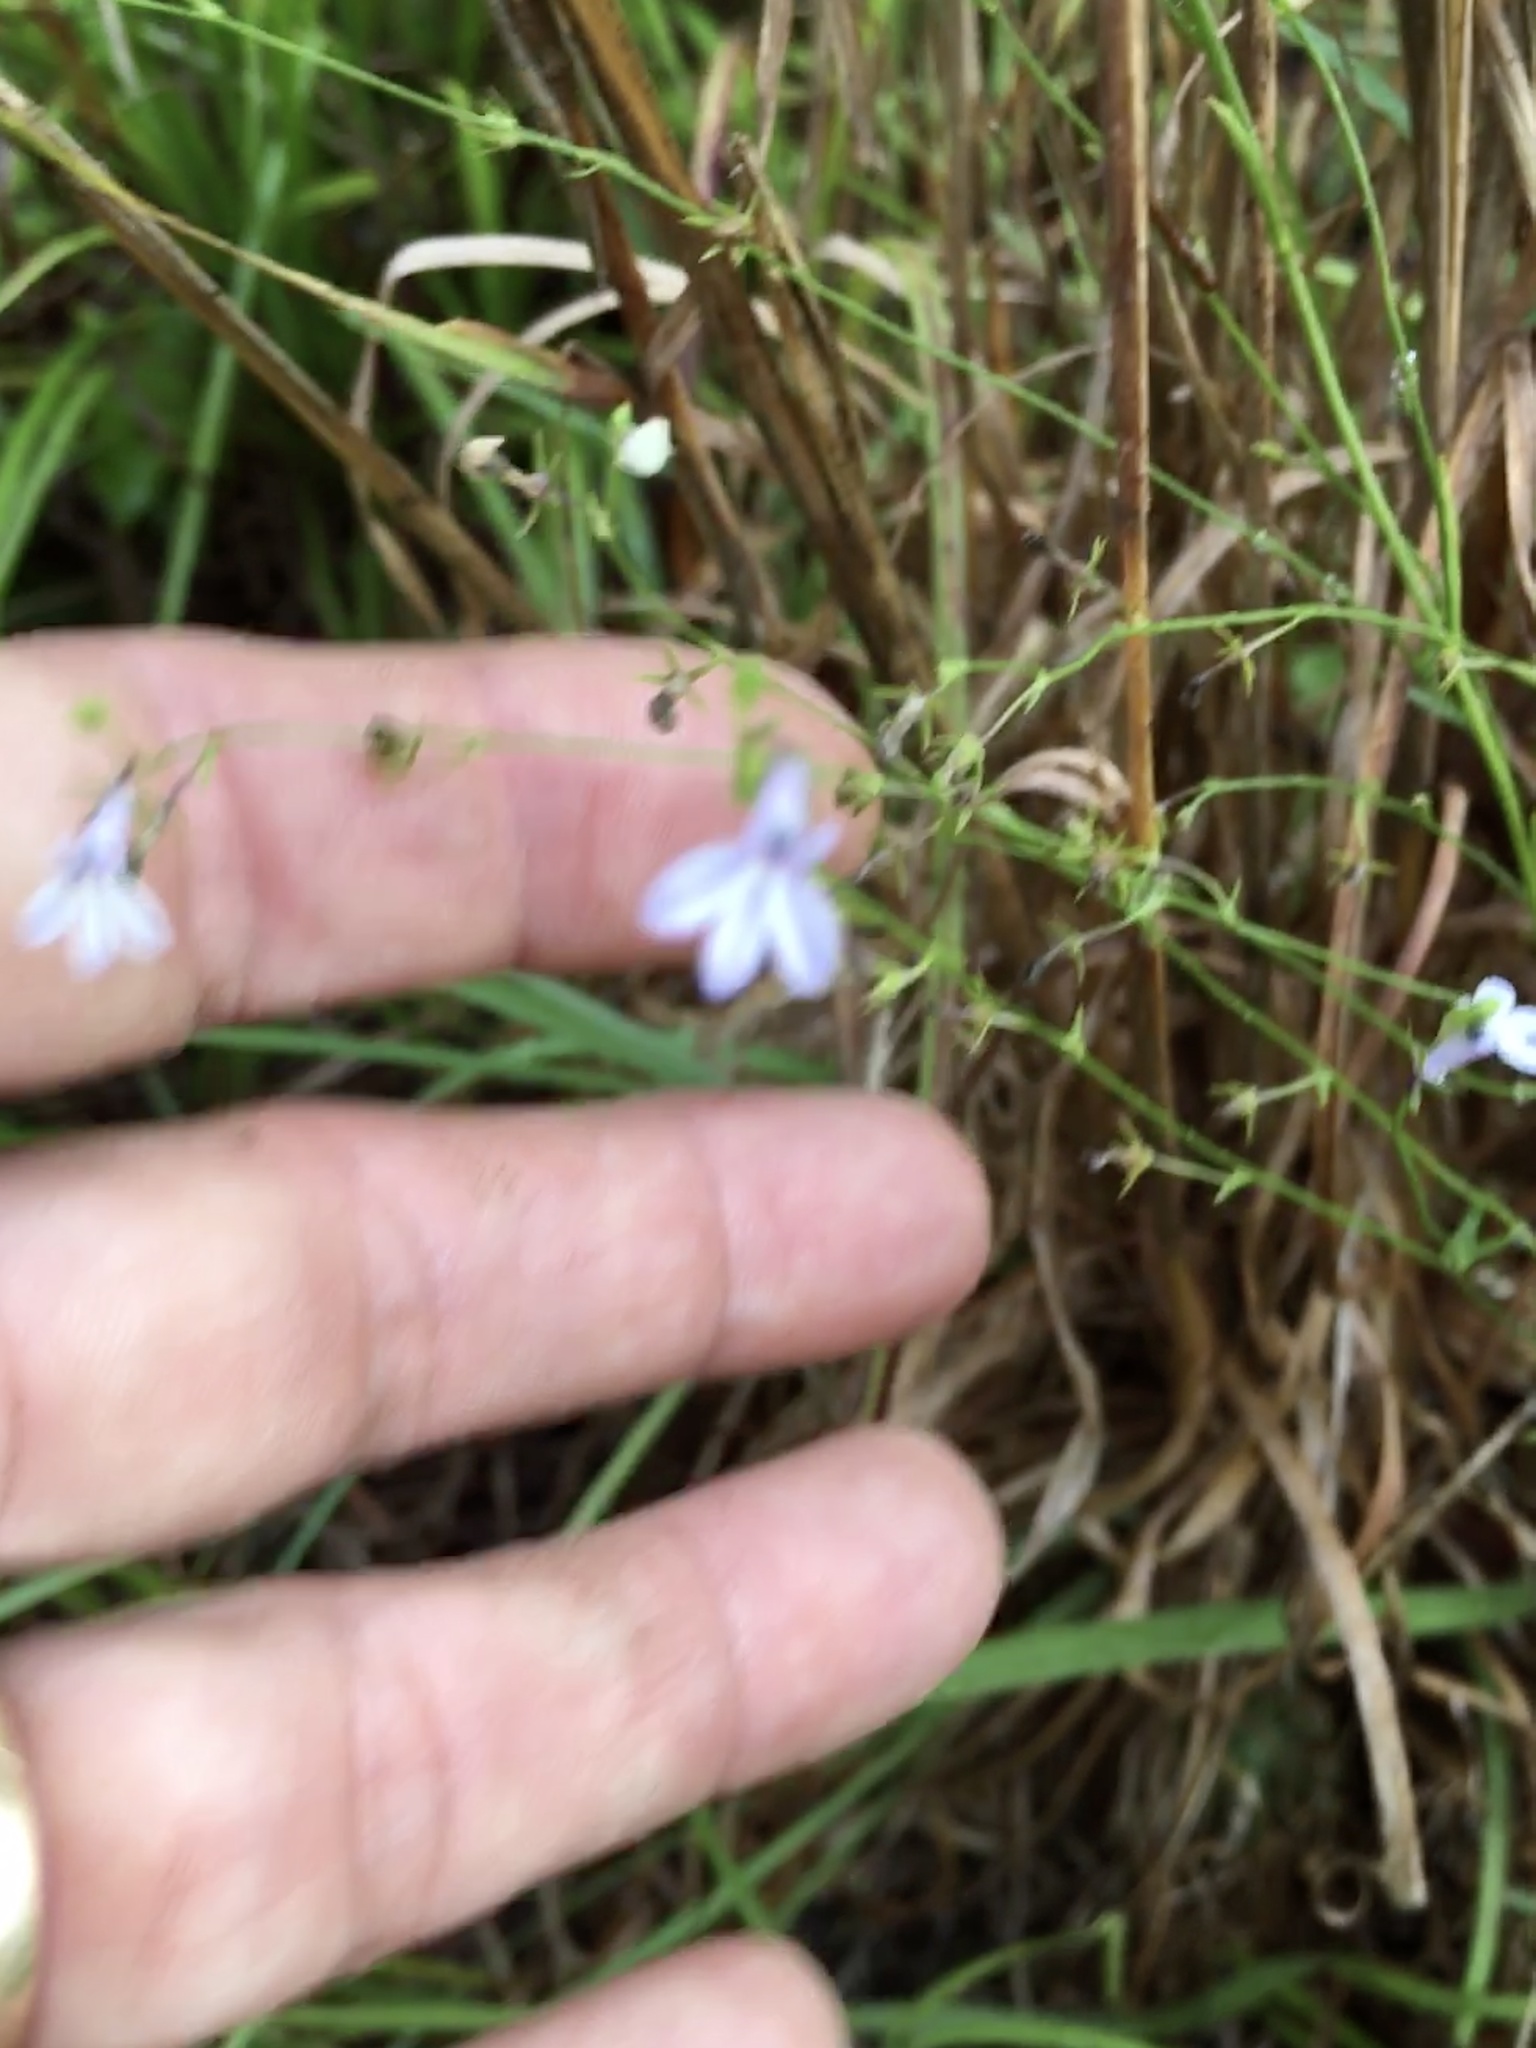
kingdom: Plantae
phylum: Tracheophyta
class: Magnoliopsida
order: Asterales
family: Campanulaceae
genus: Lobelia
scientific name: Lobelia nuttallii
